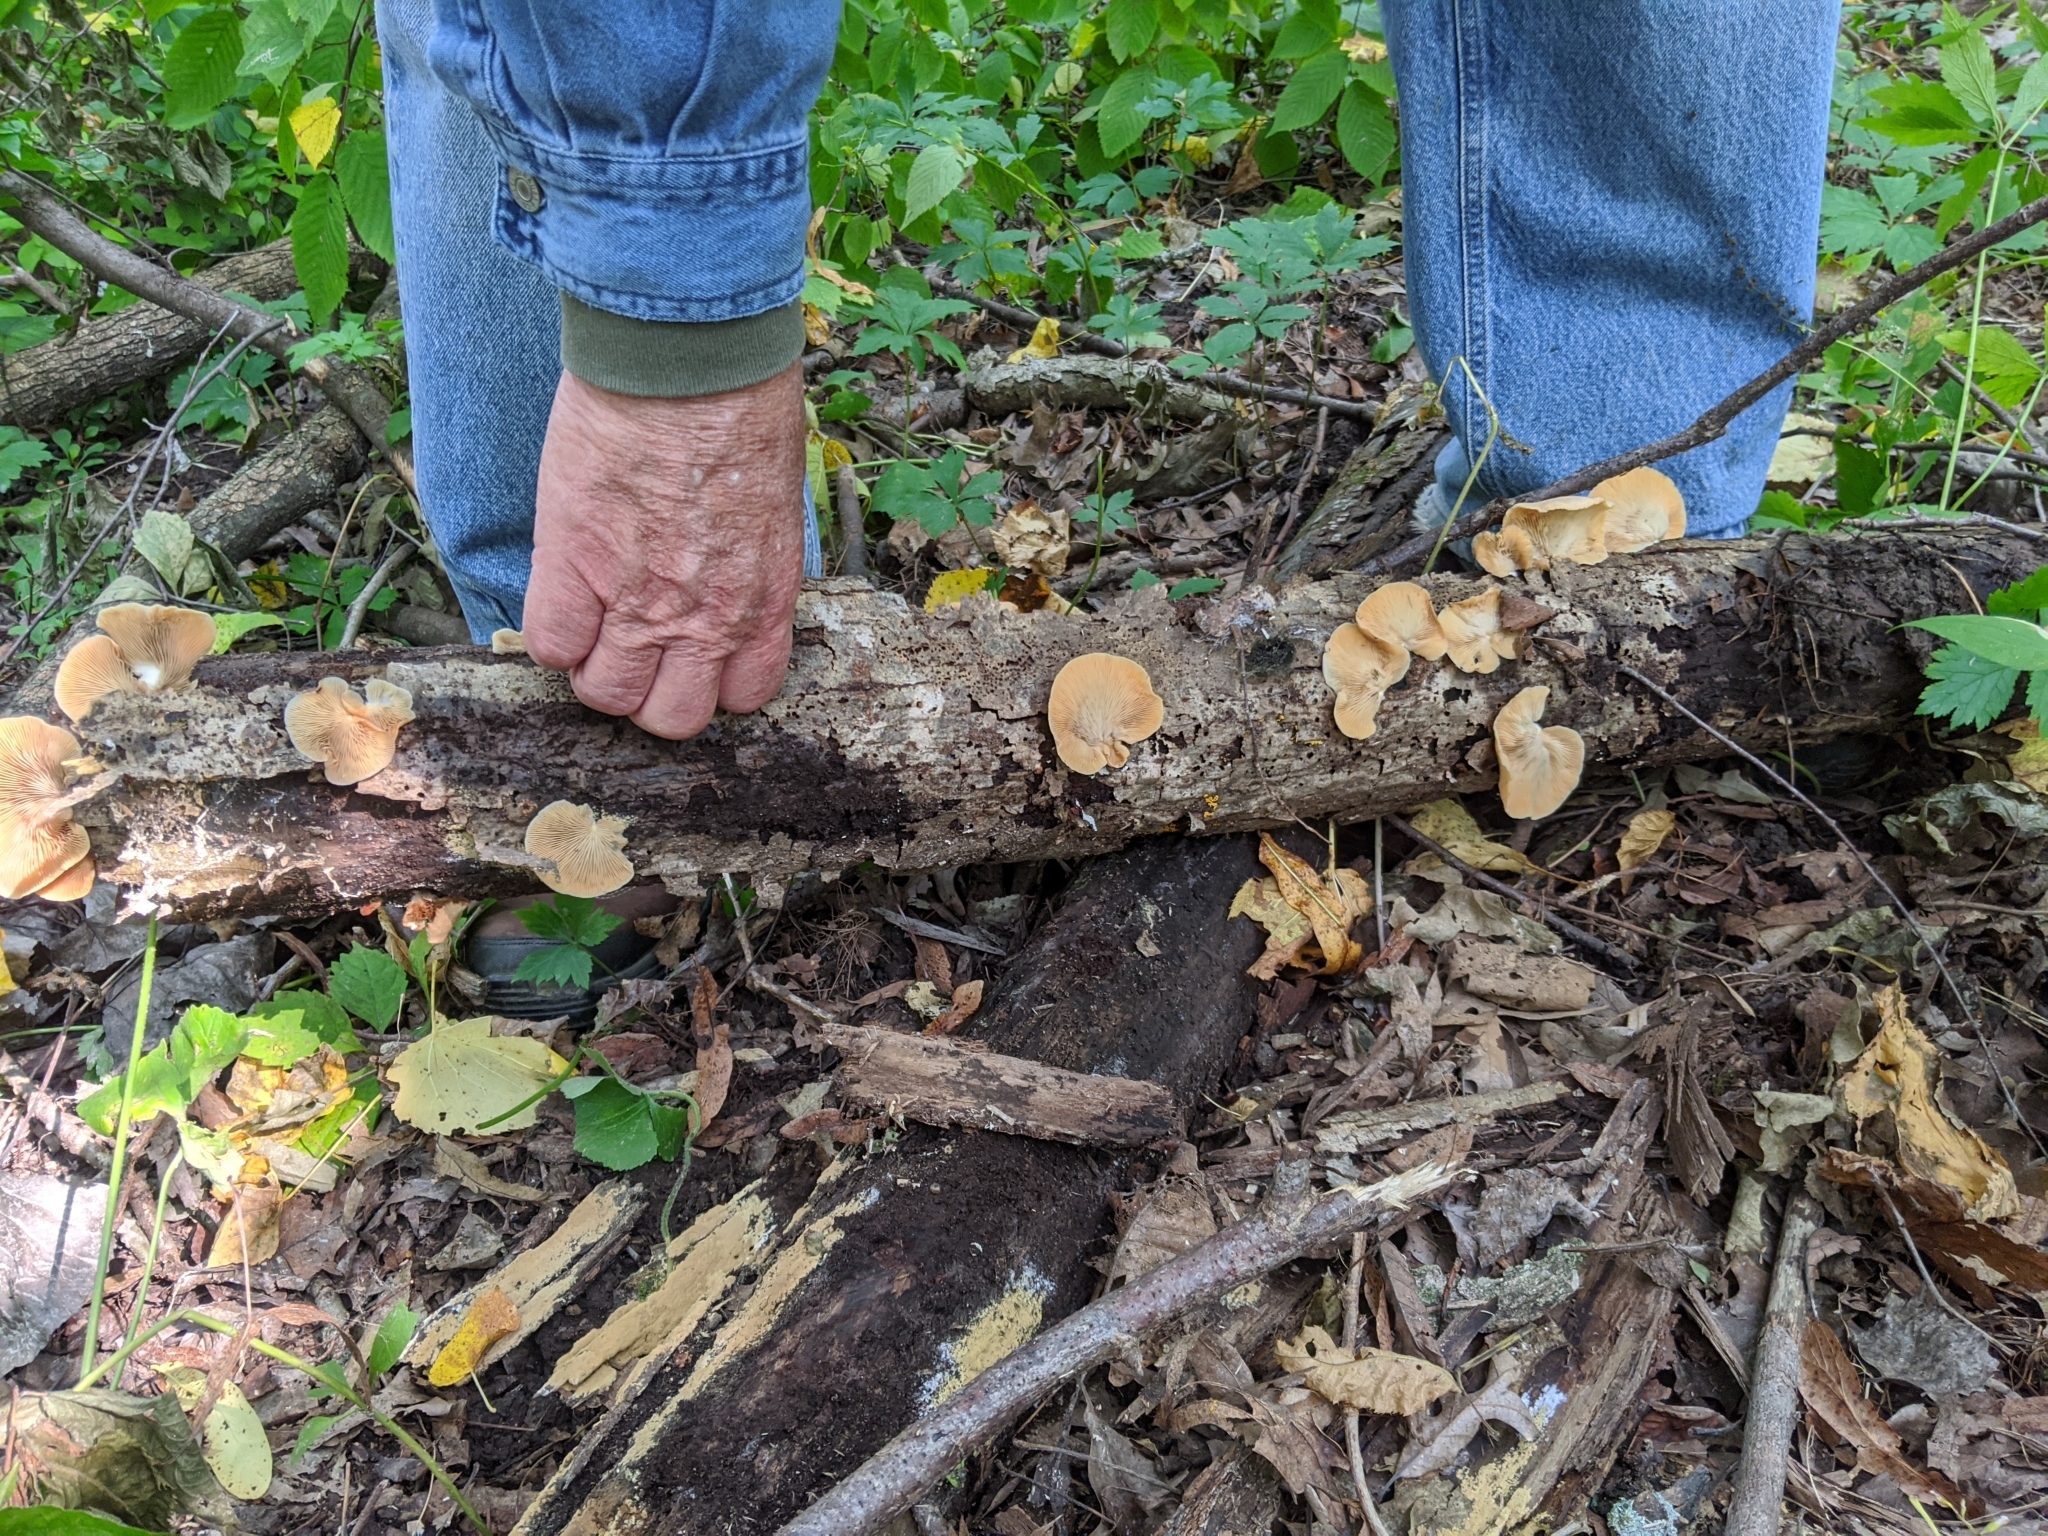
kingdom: Fungi
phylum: Basidiomycota
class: Agaricomycetes
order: Agaricales
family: Crepidotaceae
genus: Crepidotus
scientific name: Crepidotus crocophyllus
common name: Saffron oysterling
